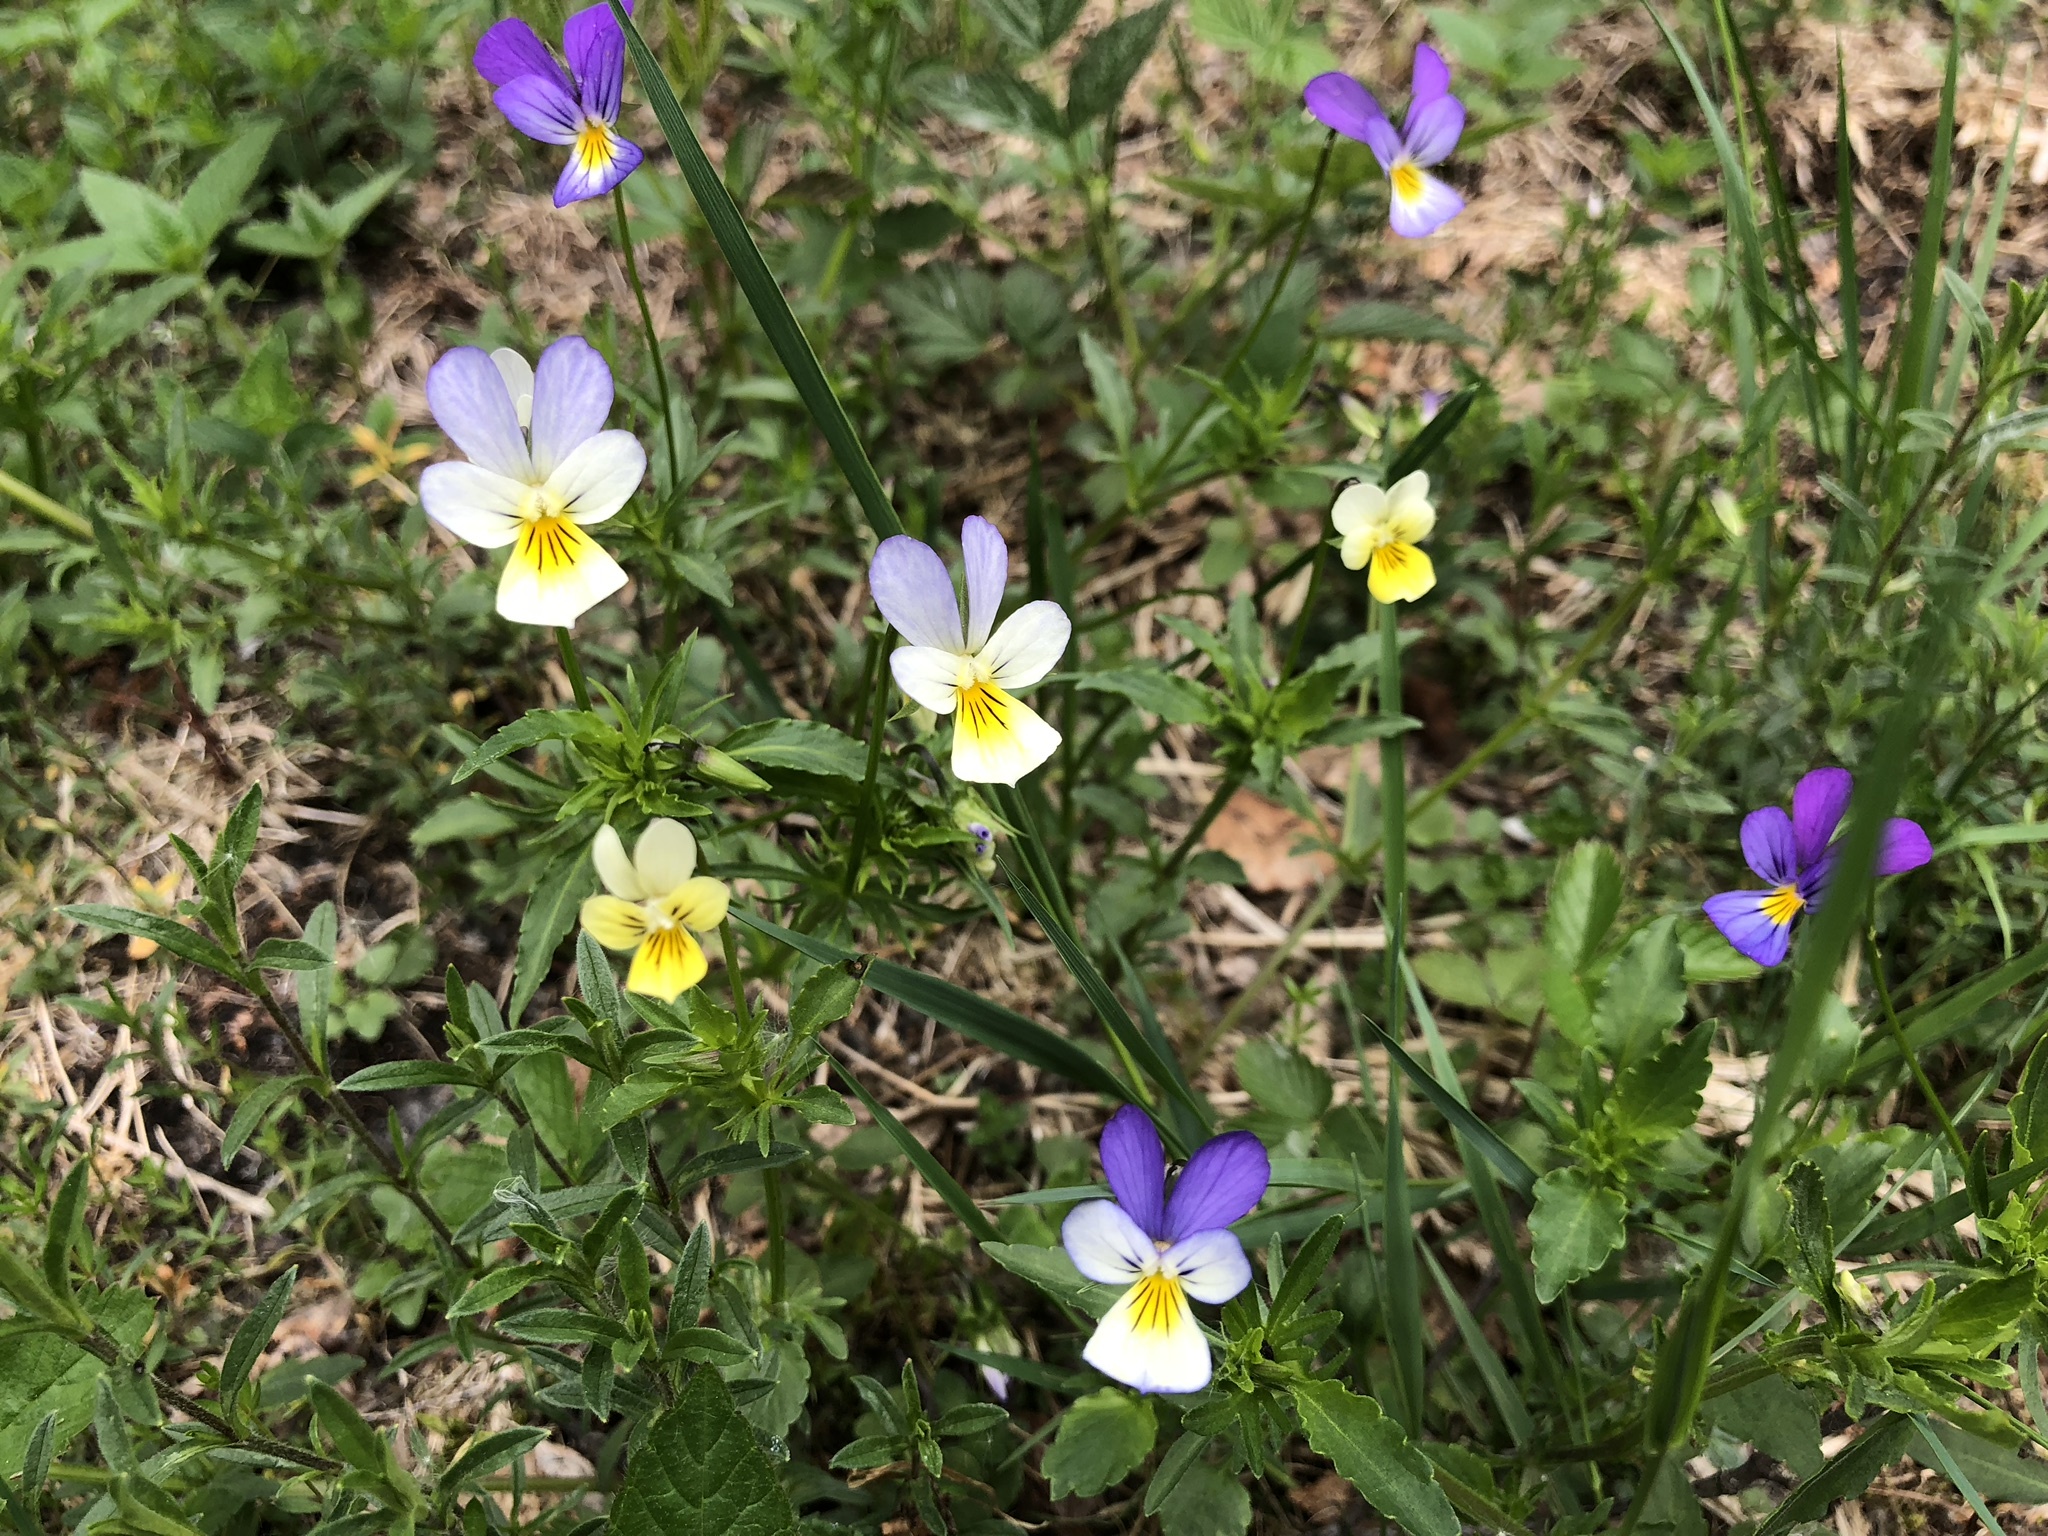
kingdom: Plantae
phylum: Tracheophyta
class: Magnoliopsida
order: Malpighiales
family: Violaceae
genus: Viola
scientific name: Viola tricolor
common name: Pansy
